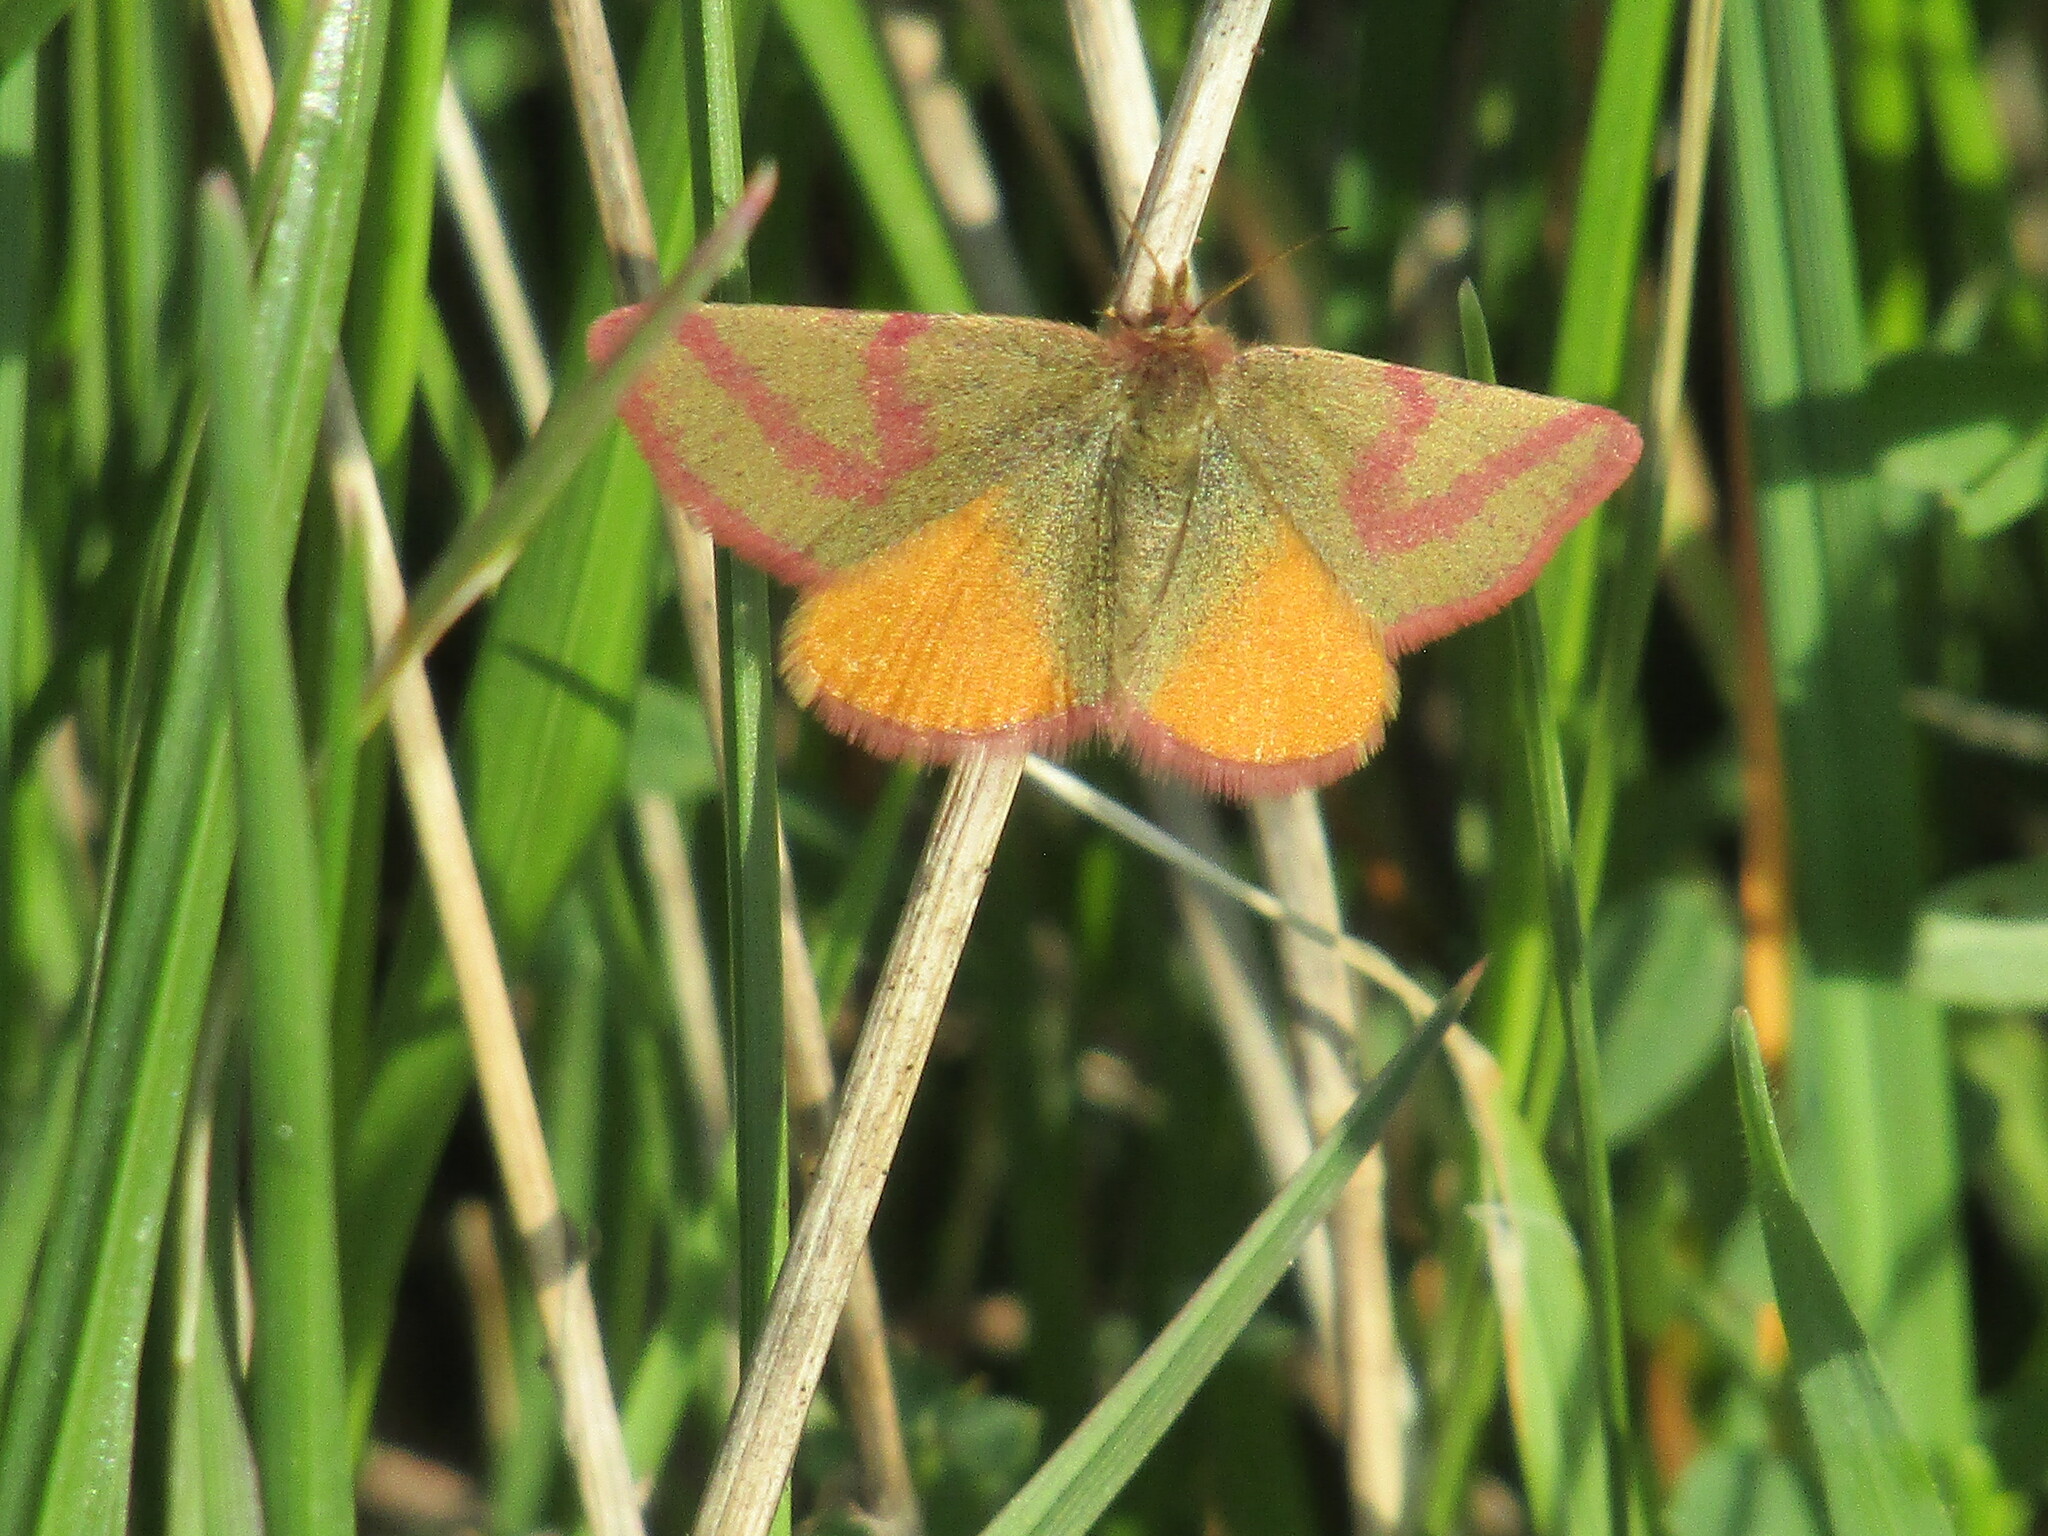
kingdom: Animalia
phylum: Arthropoda
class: Insecta
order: Lepidoptera
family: Geometridae
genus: Lythria
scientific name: Lythria purpuraria
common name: Purple-barred yellow
